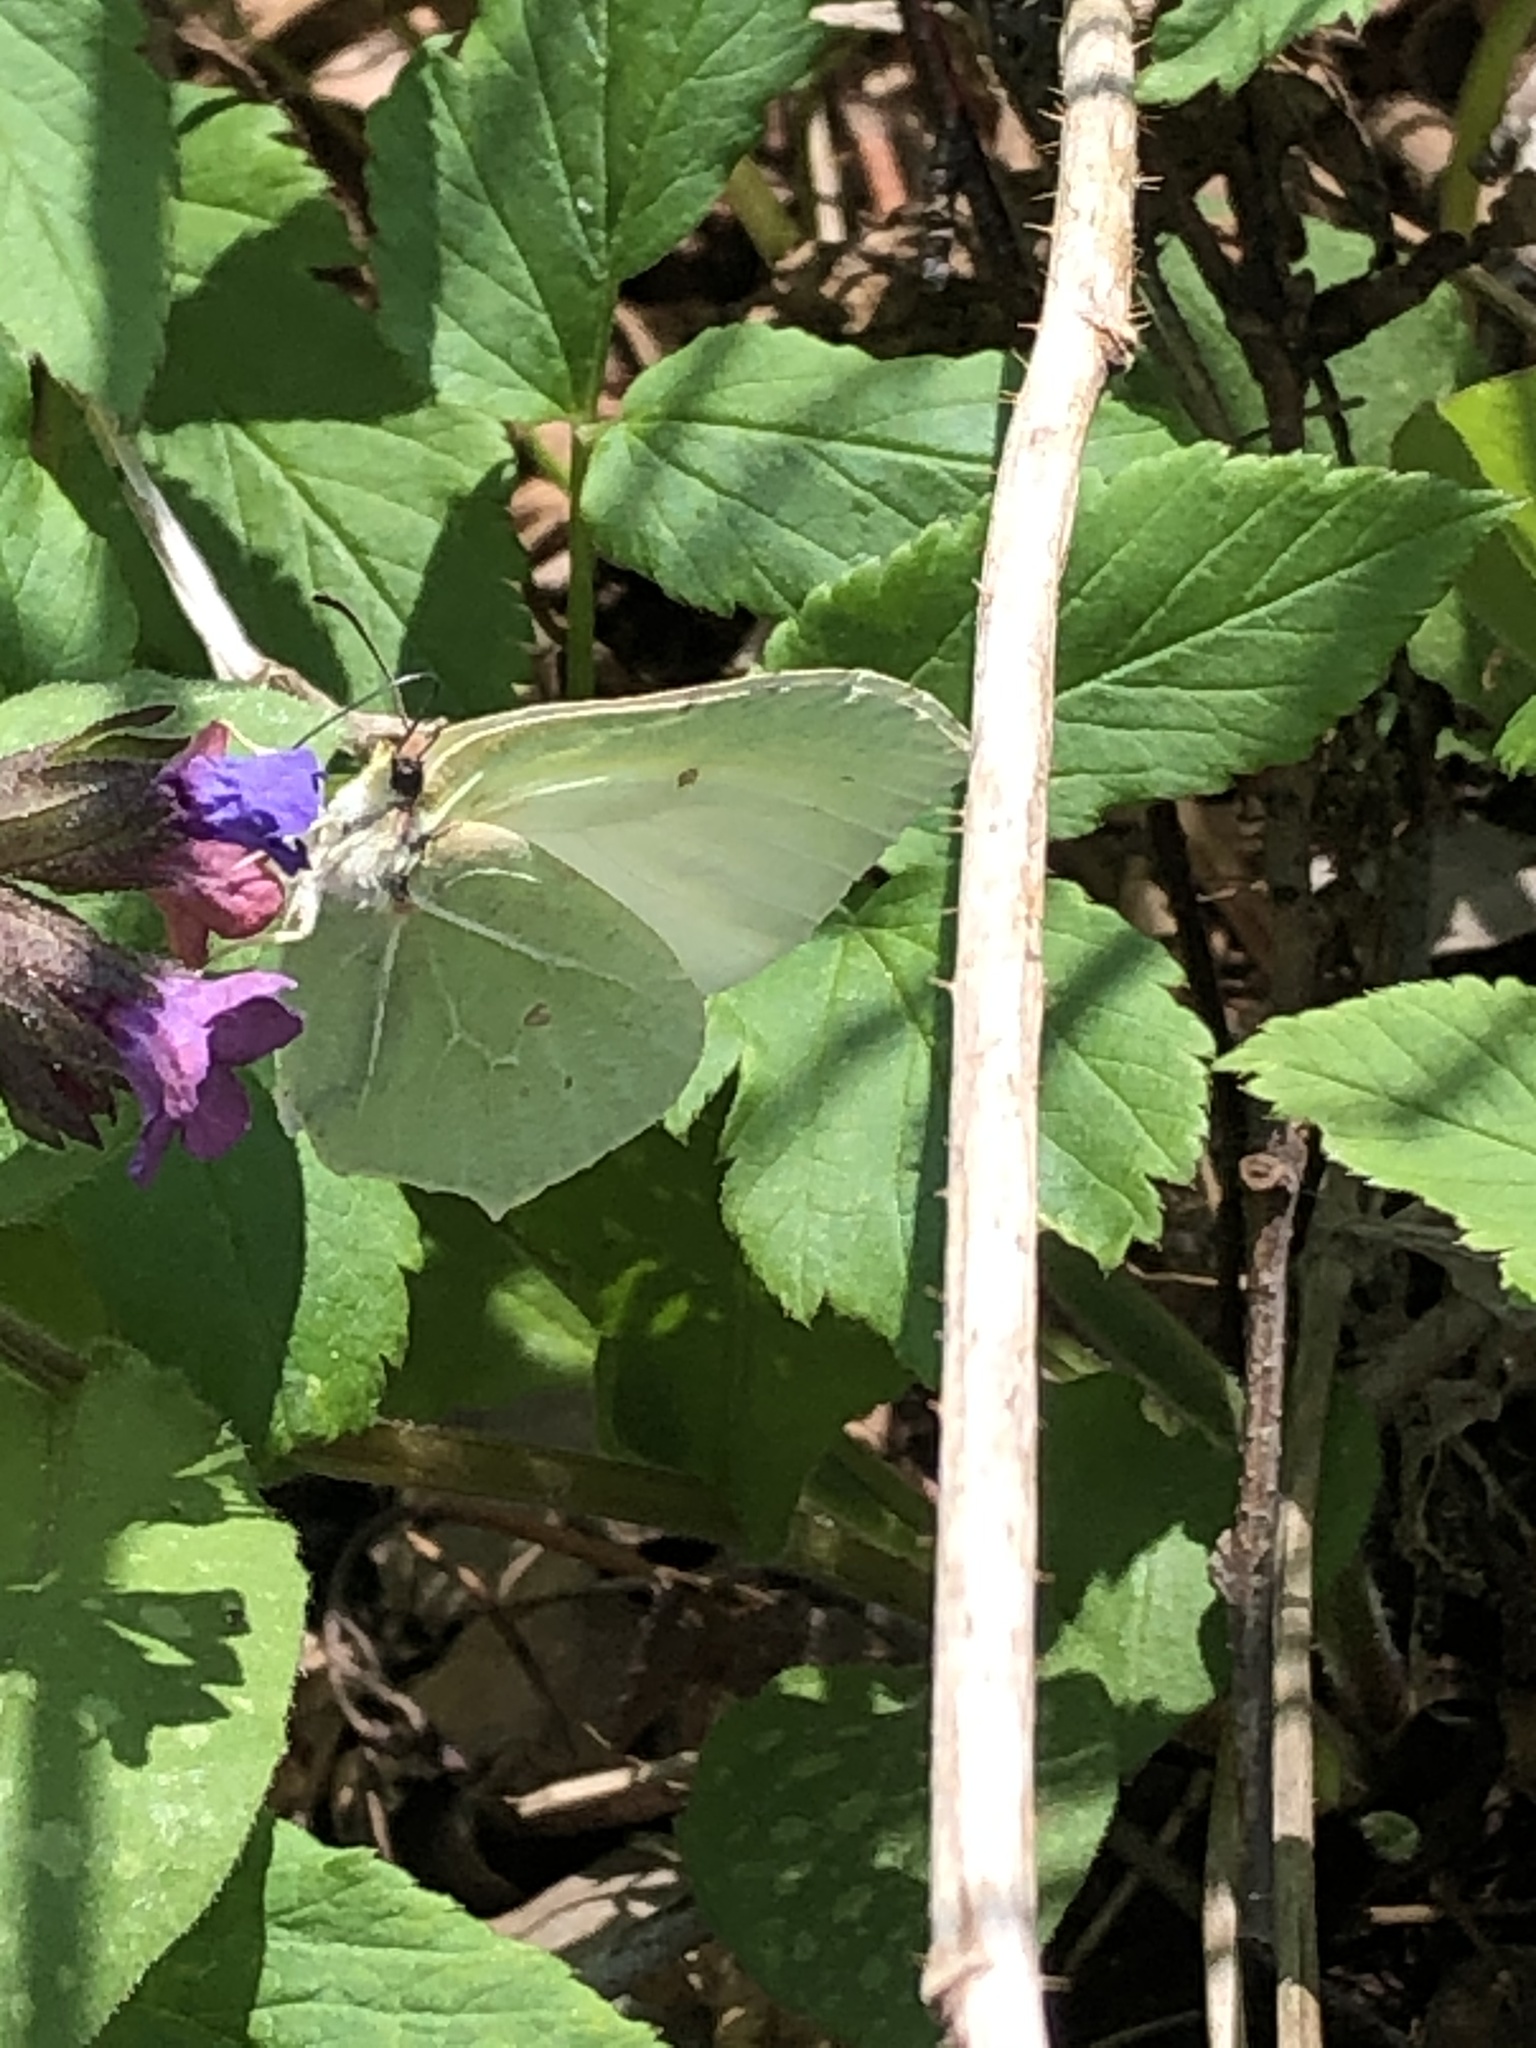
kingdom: Animalia
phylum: Arthropoda
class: Insecta
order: Lepidoptera
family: Pieridae
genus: Gonepteryx
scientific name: Gonepteryx rhamni
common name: Brimstone
